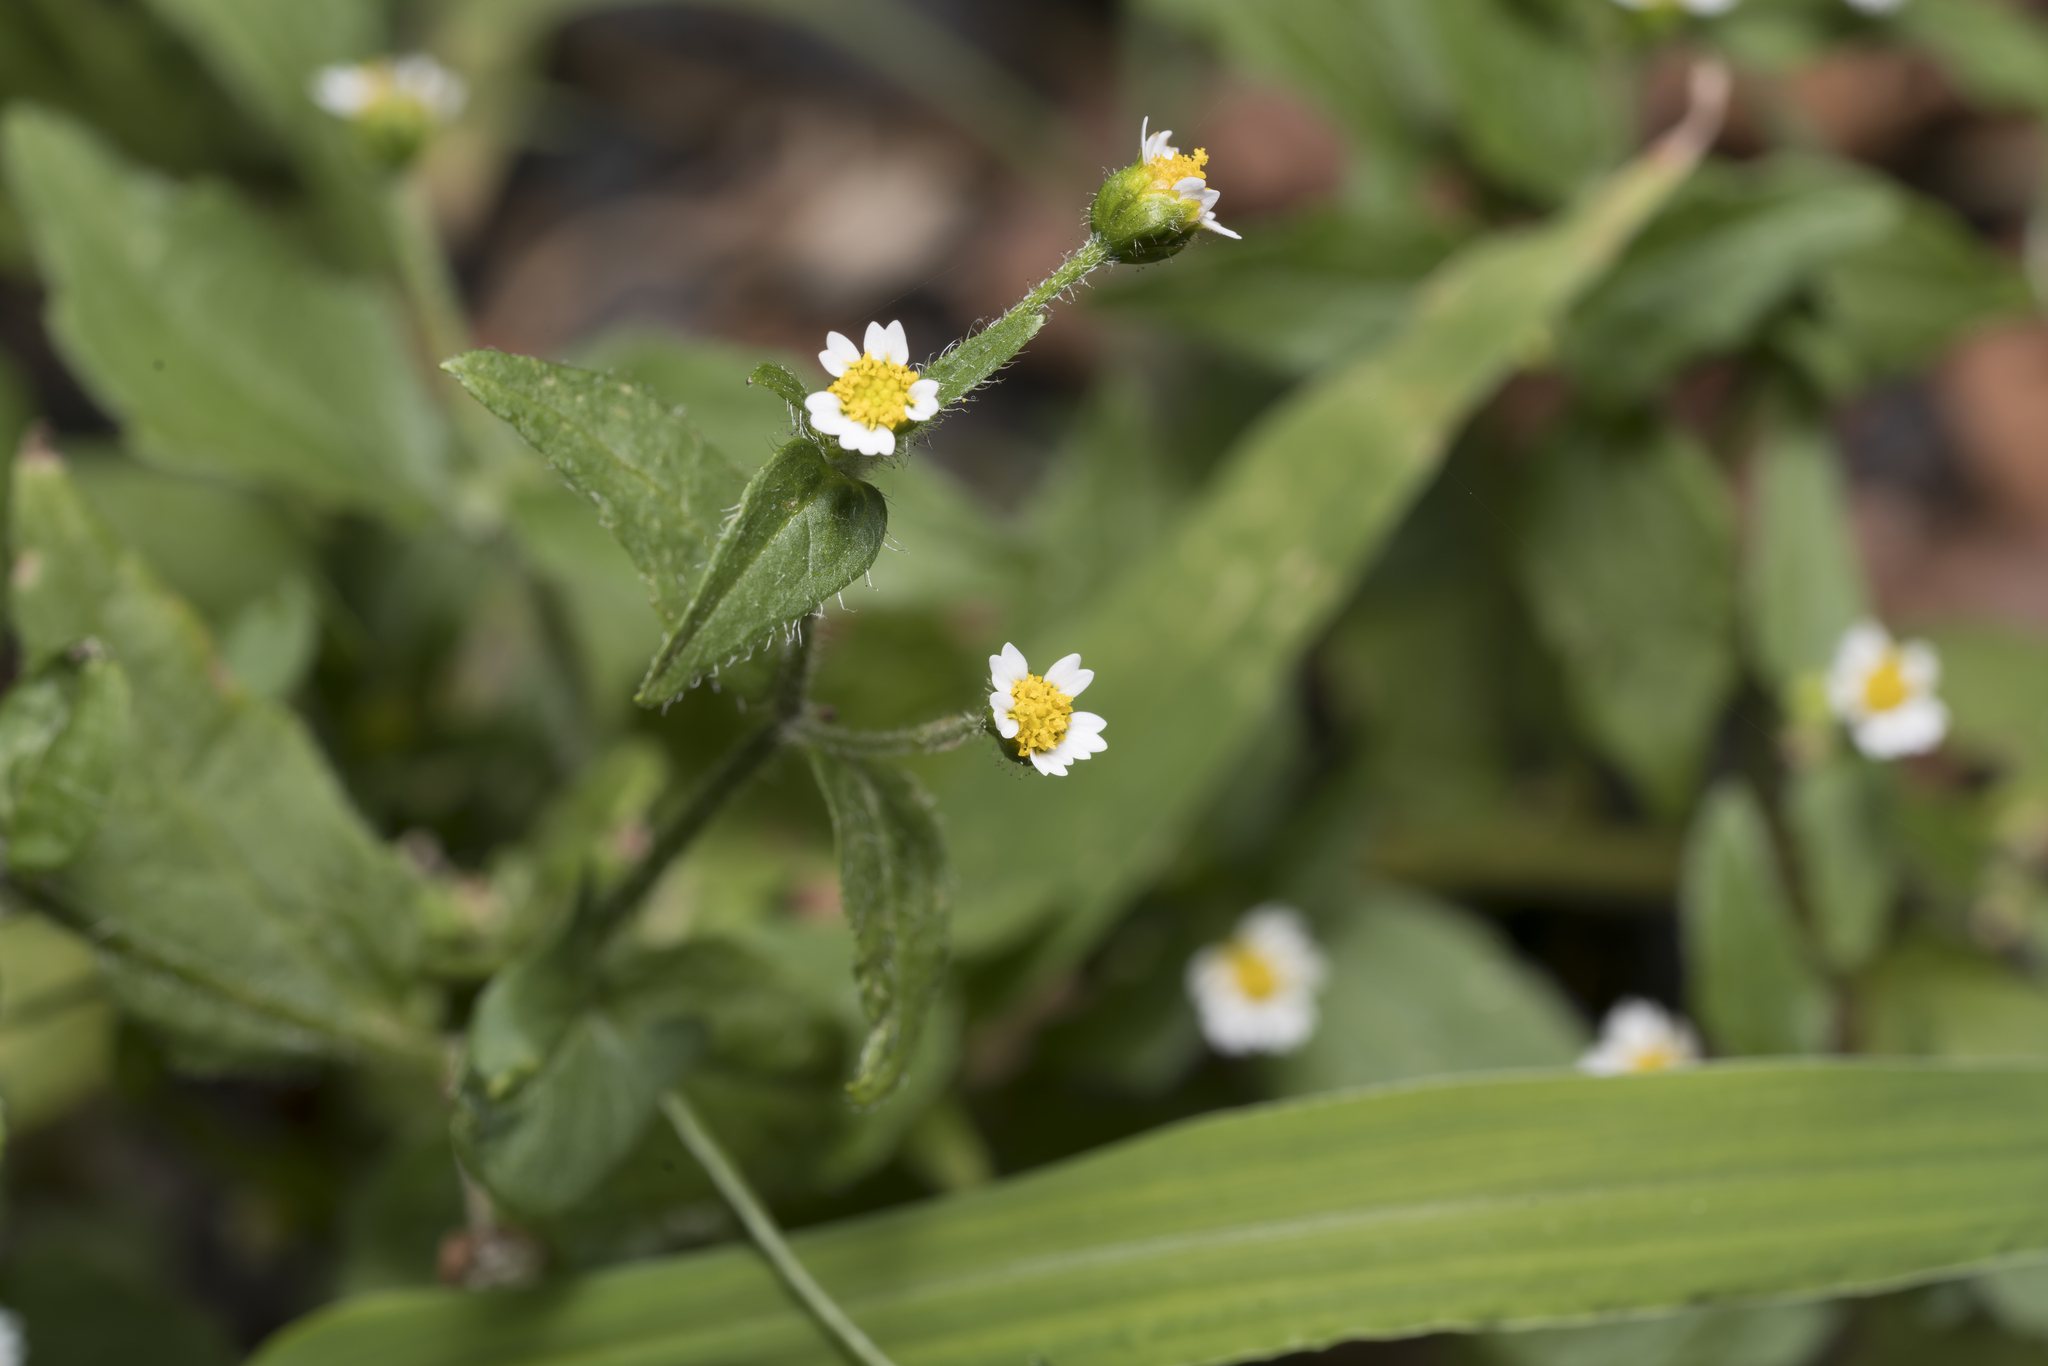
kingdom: Plantae
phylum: Tracheophyta
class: Magnoliopsida
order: Asterales
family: Asteraceae
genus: Galinsoga
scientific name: Galinsoga quadriradiata
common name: Shaggy soldier
